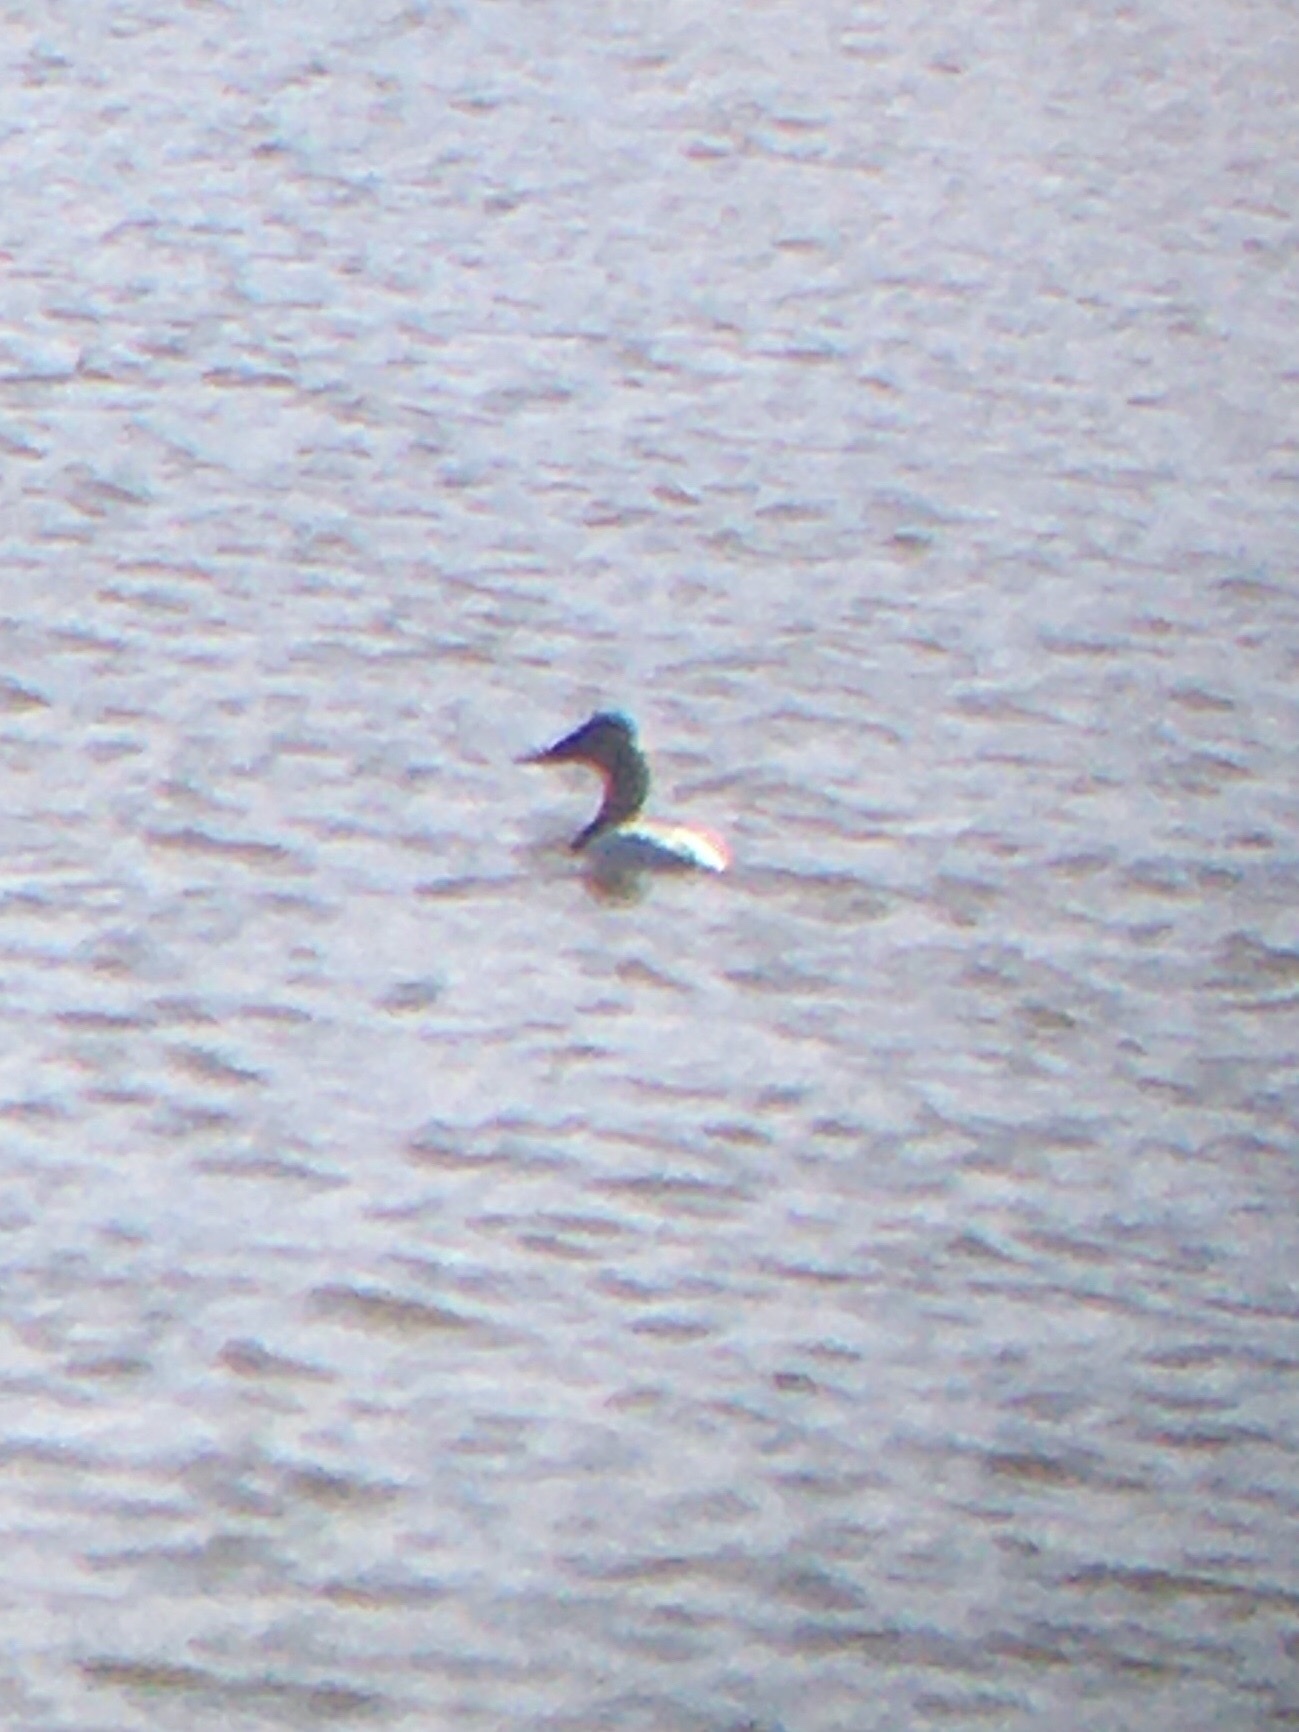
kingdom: Animalia
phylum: Chordata
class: Aves
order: Anseriformes
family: Anatidae
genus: Aythya
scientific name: Aythya valisineria
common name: Canvasback
